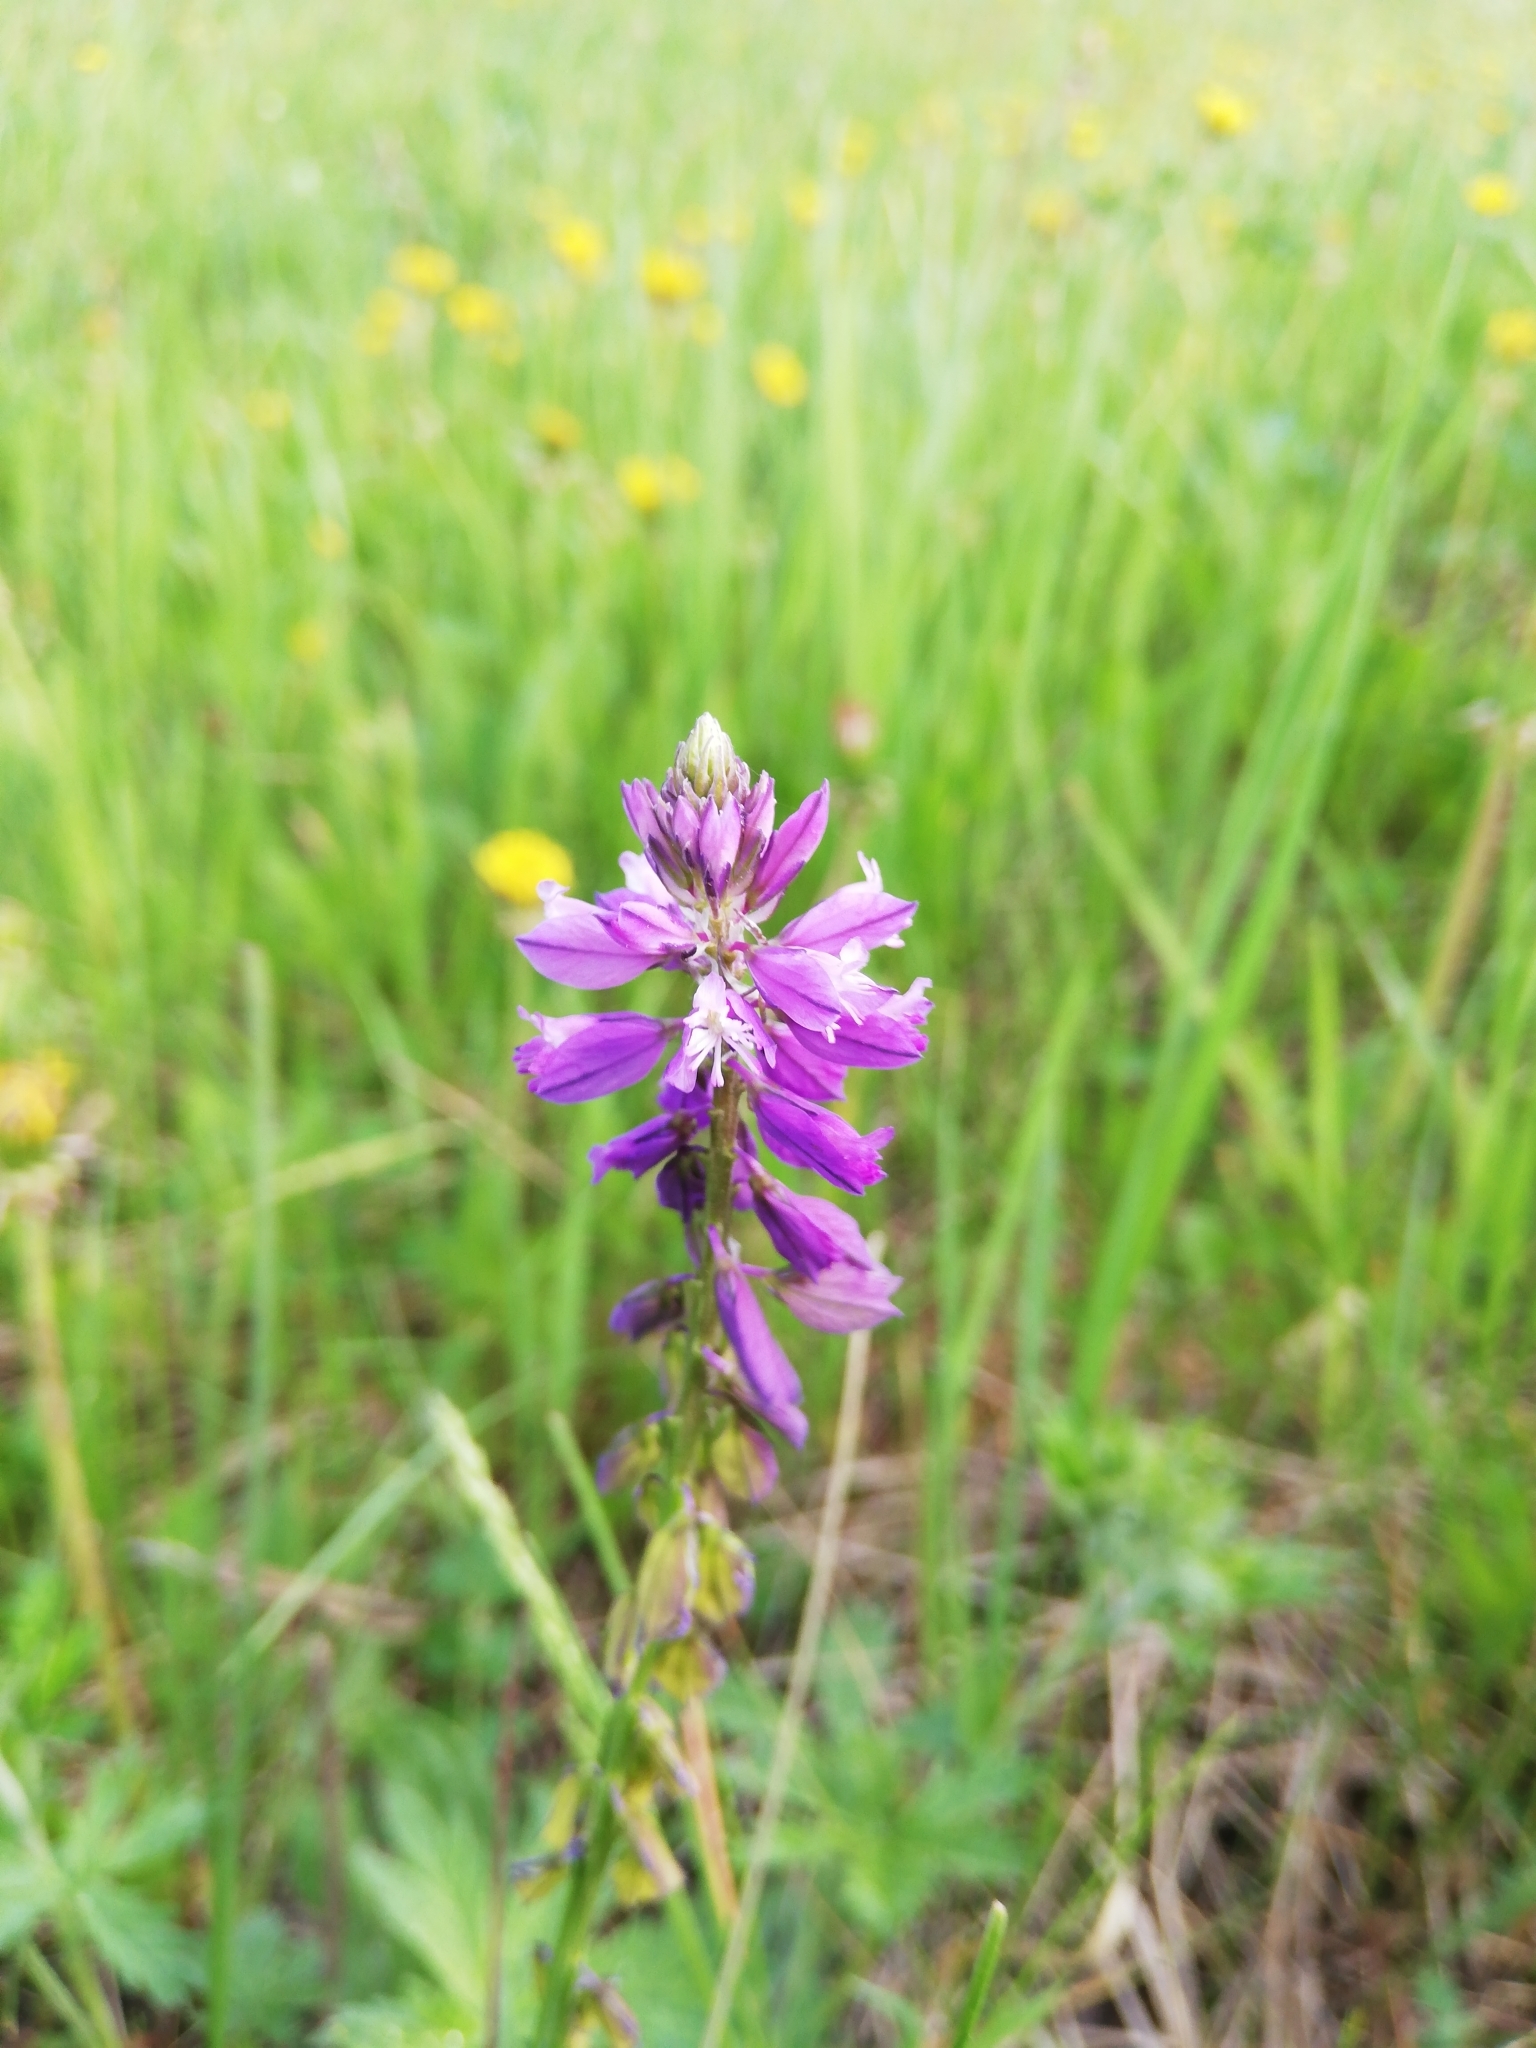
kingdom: Plantae
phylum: Tracheophyta
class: Magnoliopsida
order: Fabales
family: Polygalaceae
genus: Polygala
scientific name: Polygala comosa
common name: Tufted milkwort
